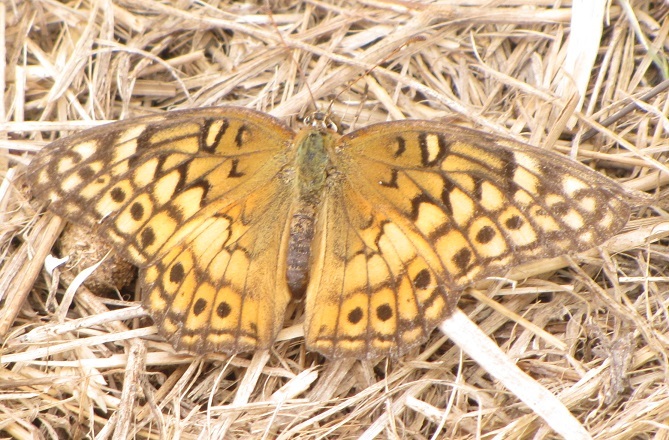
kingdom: Animalia
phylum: Arthropoda
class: Insecta
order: Lepidoptera
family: Nymphalidae
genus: Euptoieta
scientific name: Euptoieta claudia
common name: Variegated fritillary
